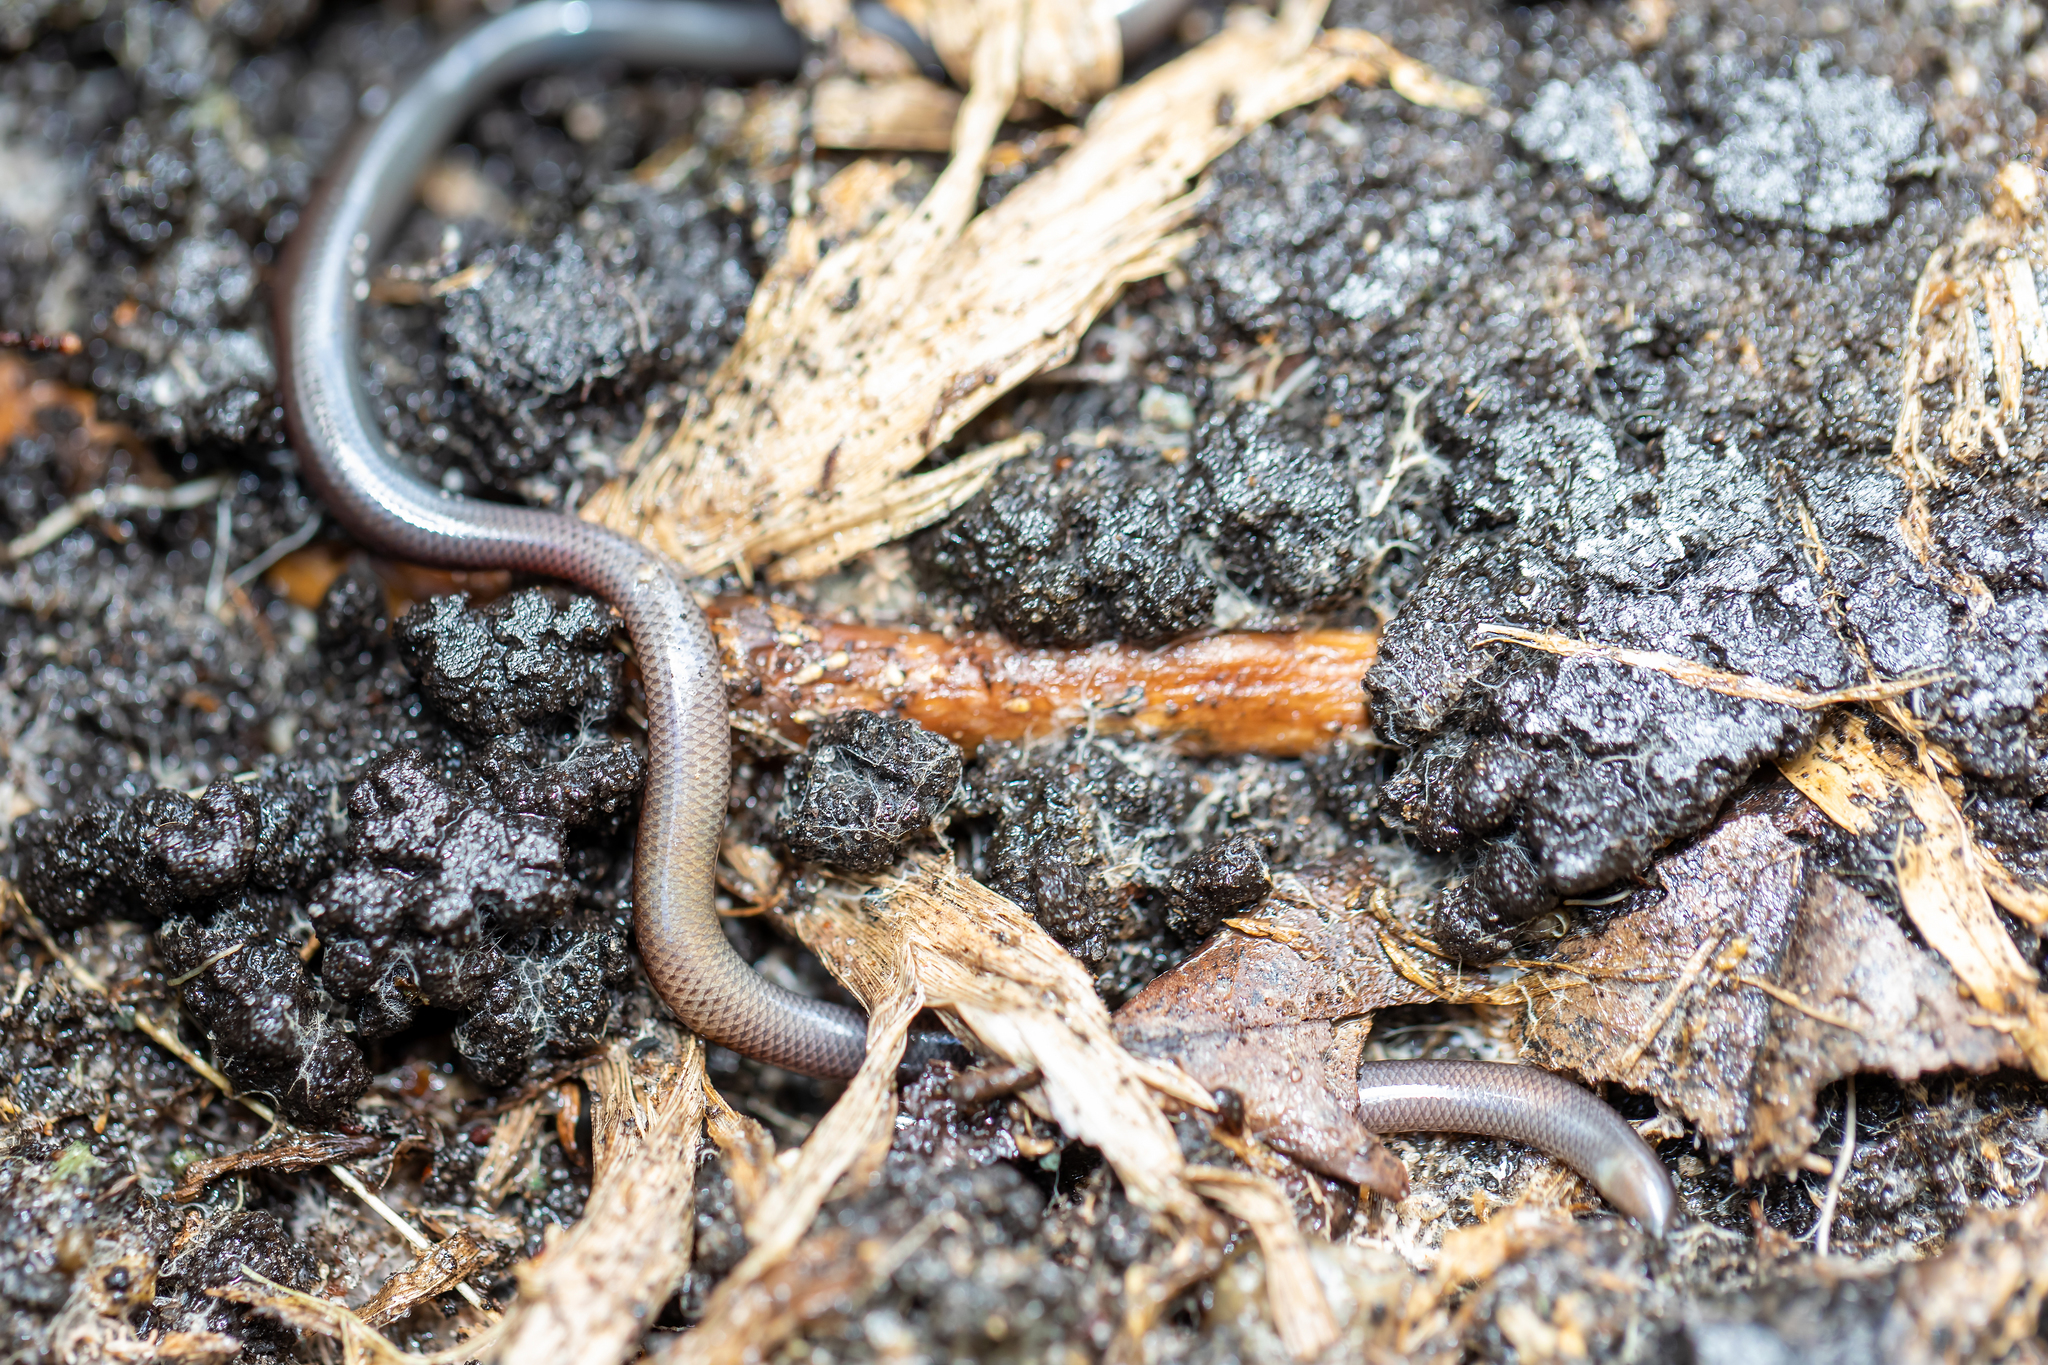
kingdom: Animalia
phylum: Chordata
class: Squamata
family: Typhlopidae
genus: Indotyphlops
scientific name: Indotyphlops braminus
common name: Brahminy blindsnake
